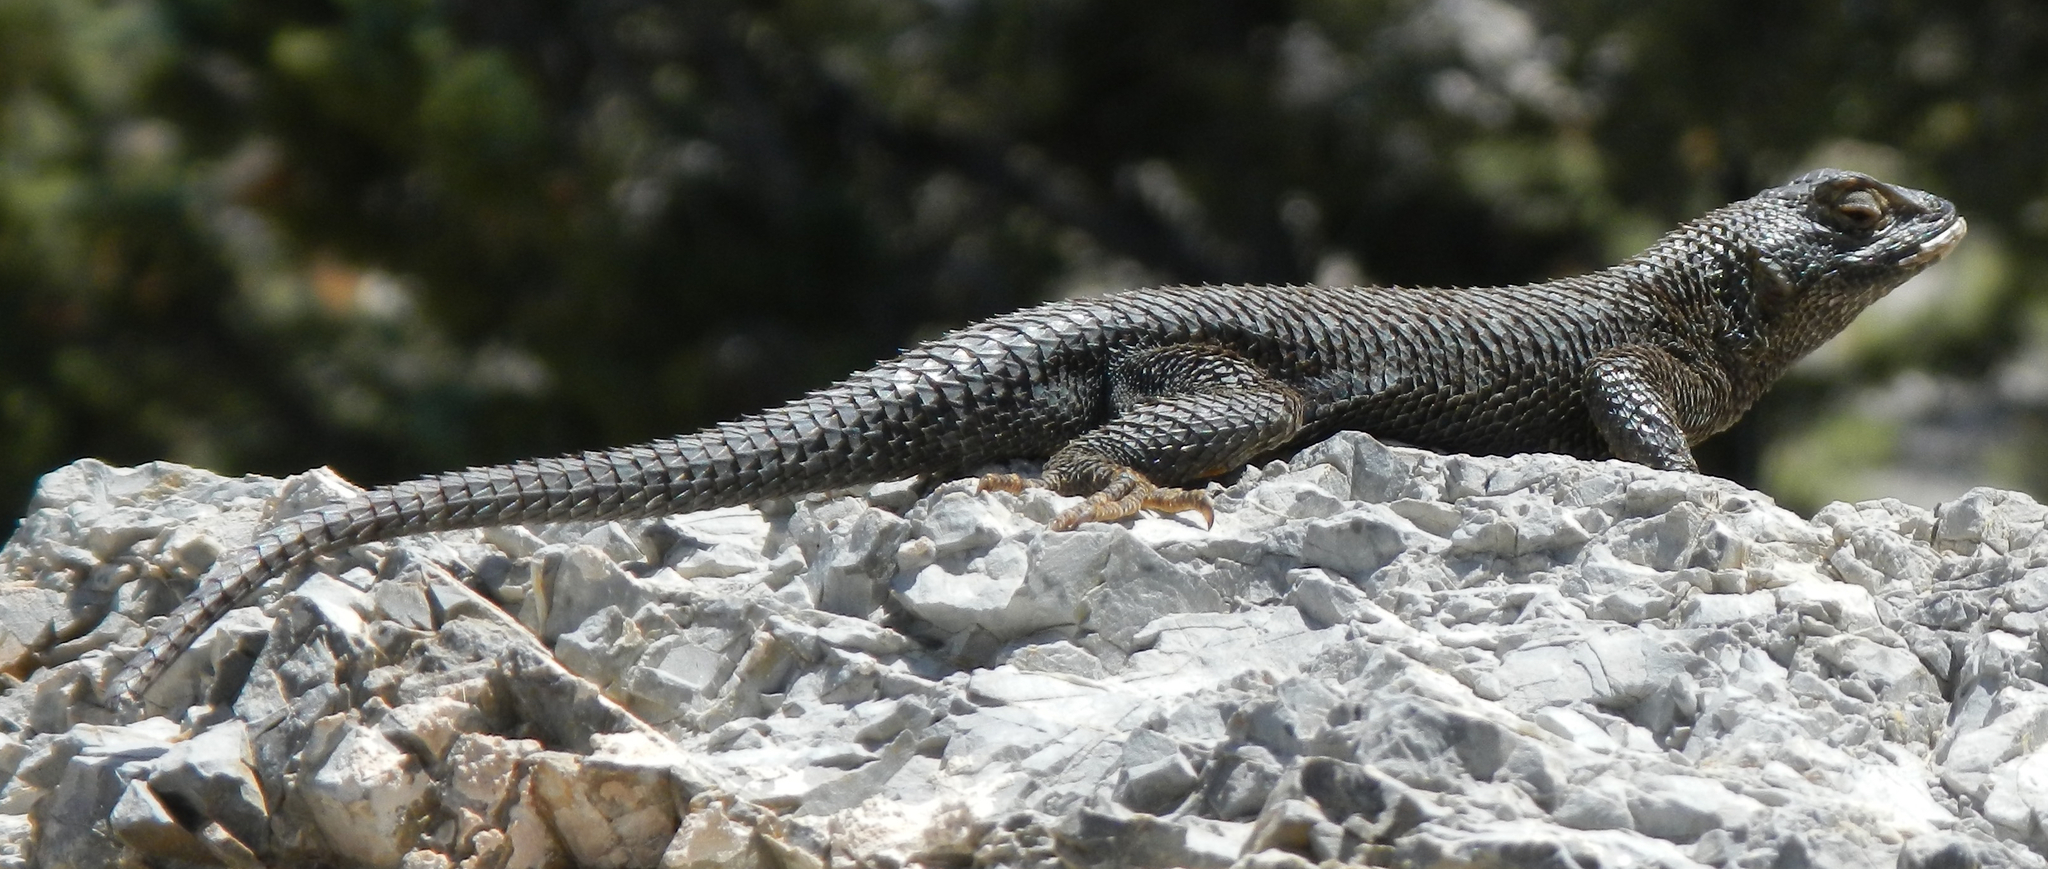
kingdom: Animalia
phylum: Chordata
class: Squamata
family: Phrynosomatidae
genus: Sceloporus
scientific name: Sceloporus occidentalis
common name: Western fence lizard
